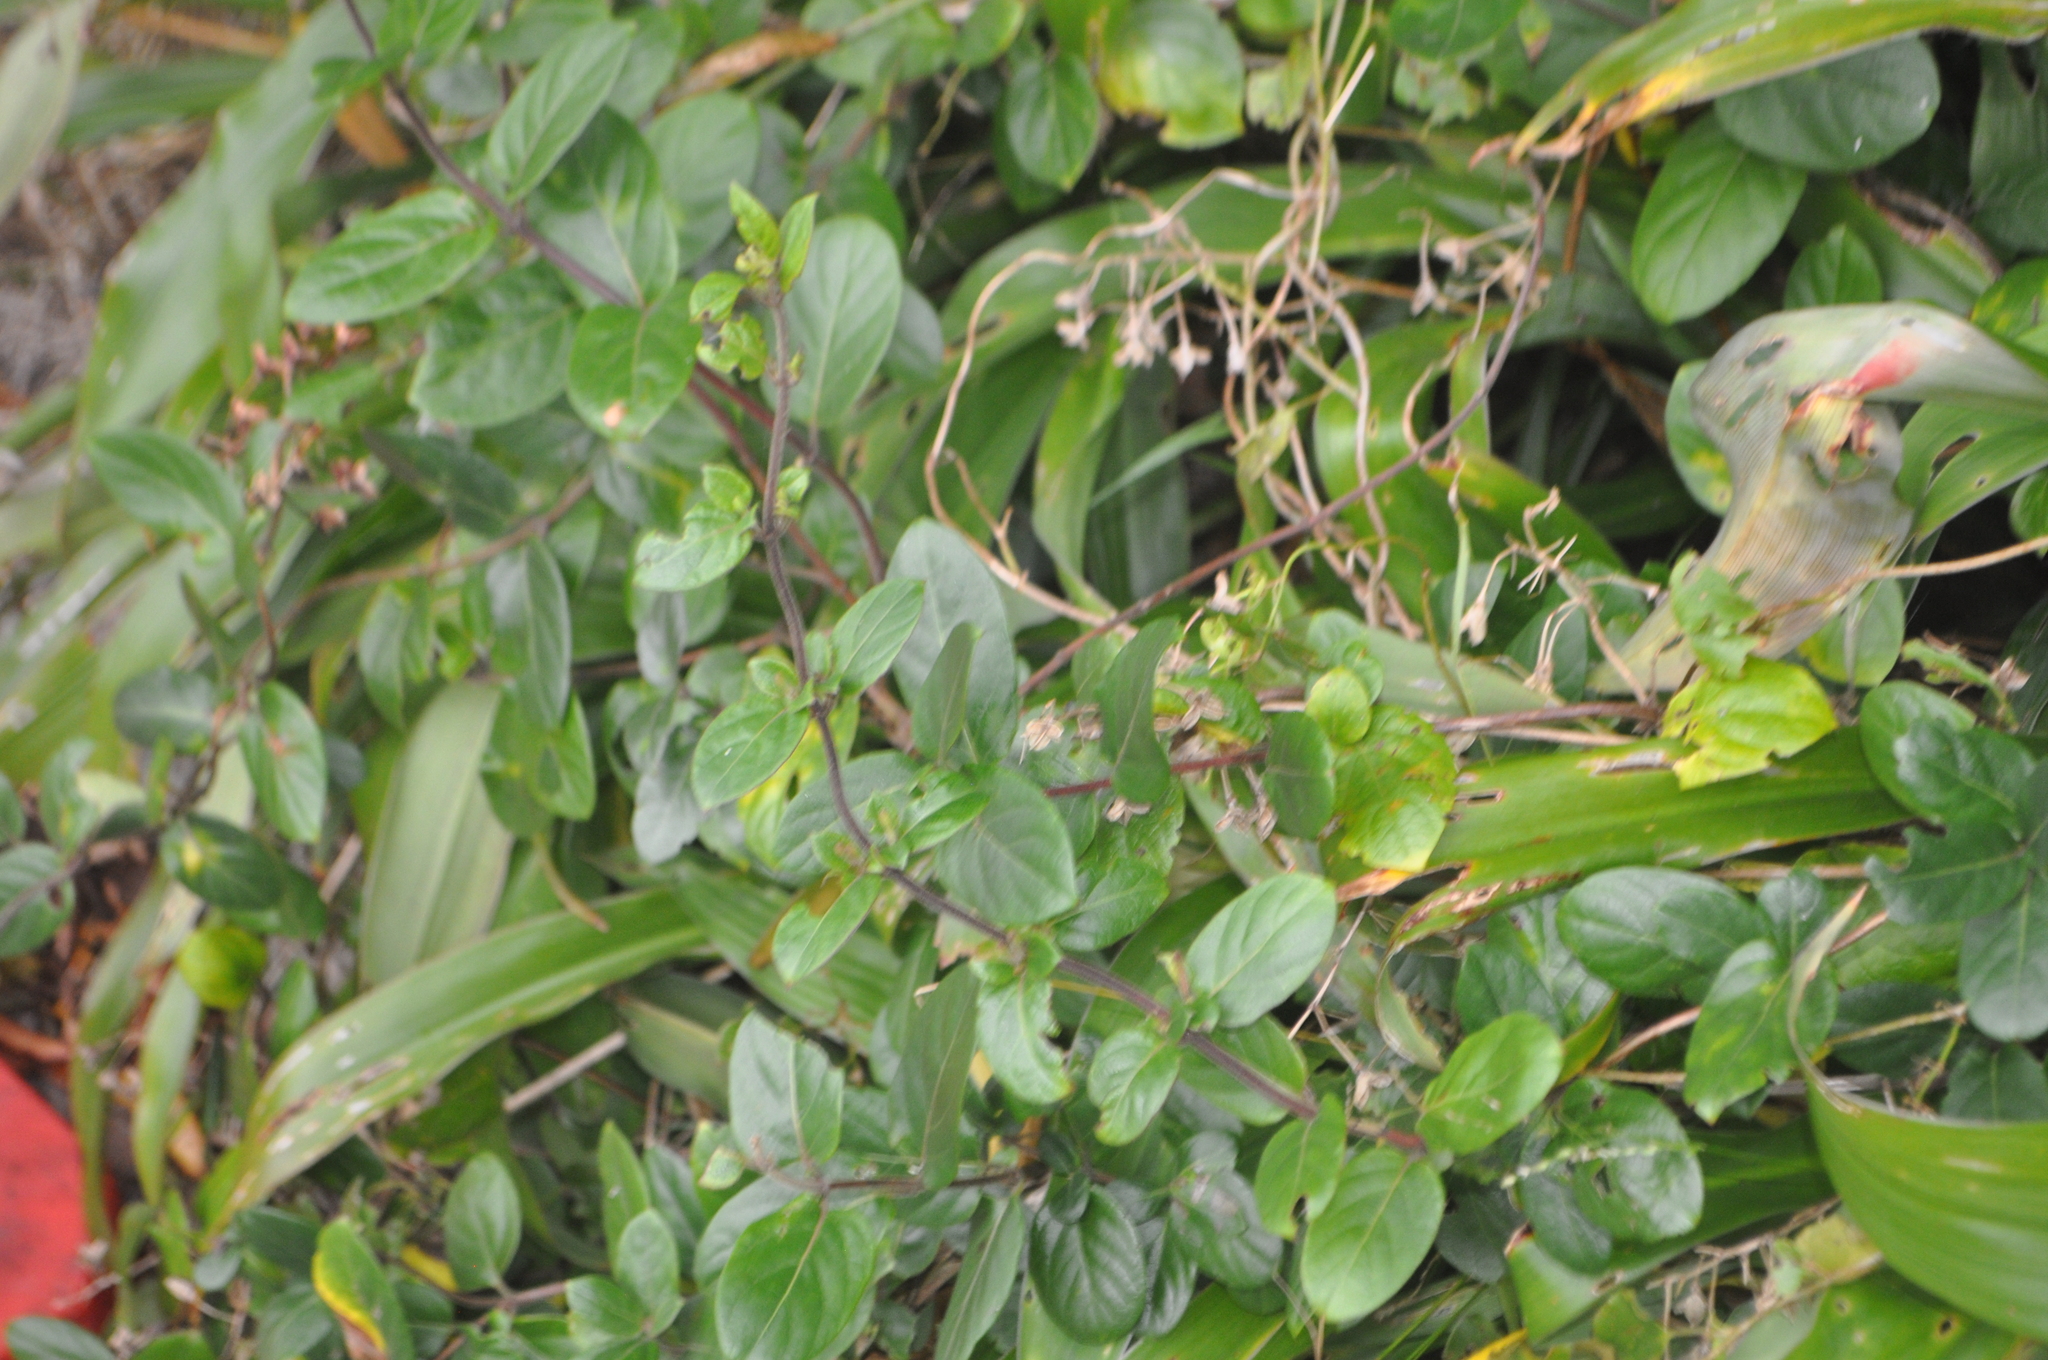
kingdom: Plantae
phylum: Tracheophyta
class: Magnoliopsida
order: Dipsacales
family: Caprifoliaceae
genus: Lonicera
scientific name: Lonicera japonica
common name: Japanese honeysuckle
